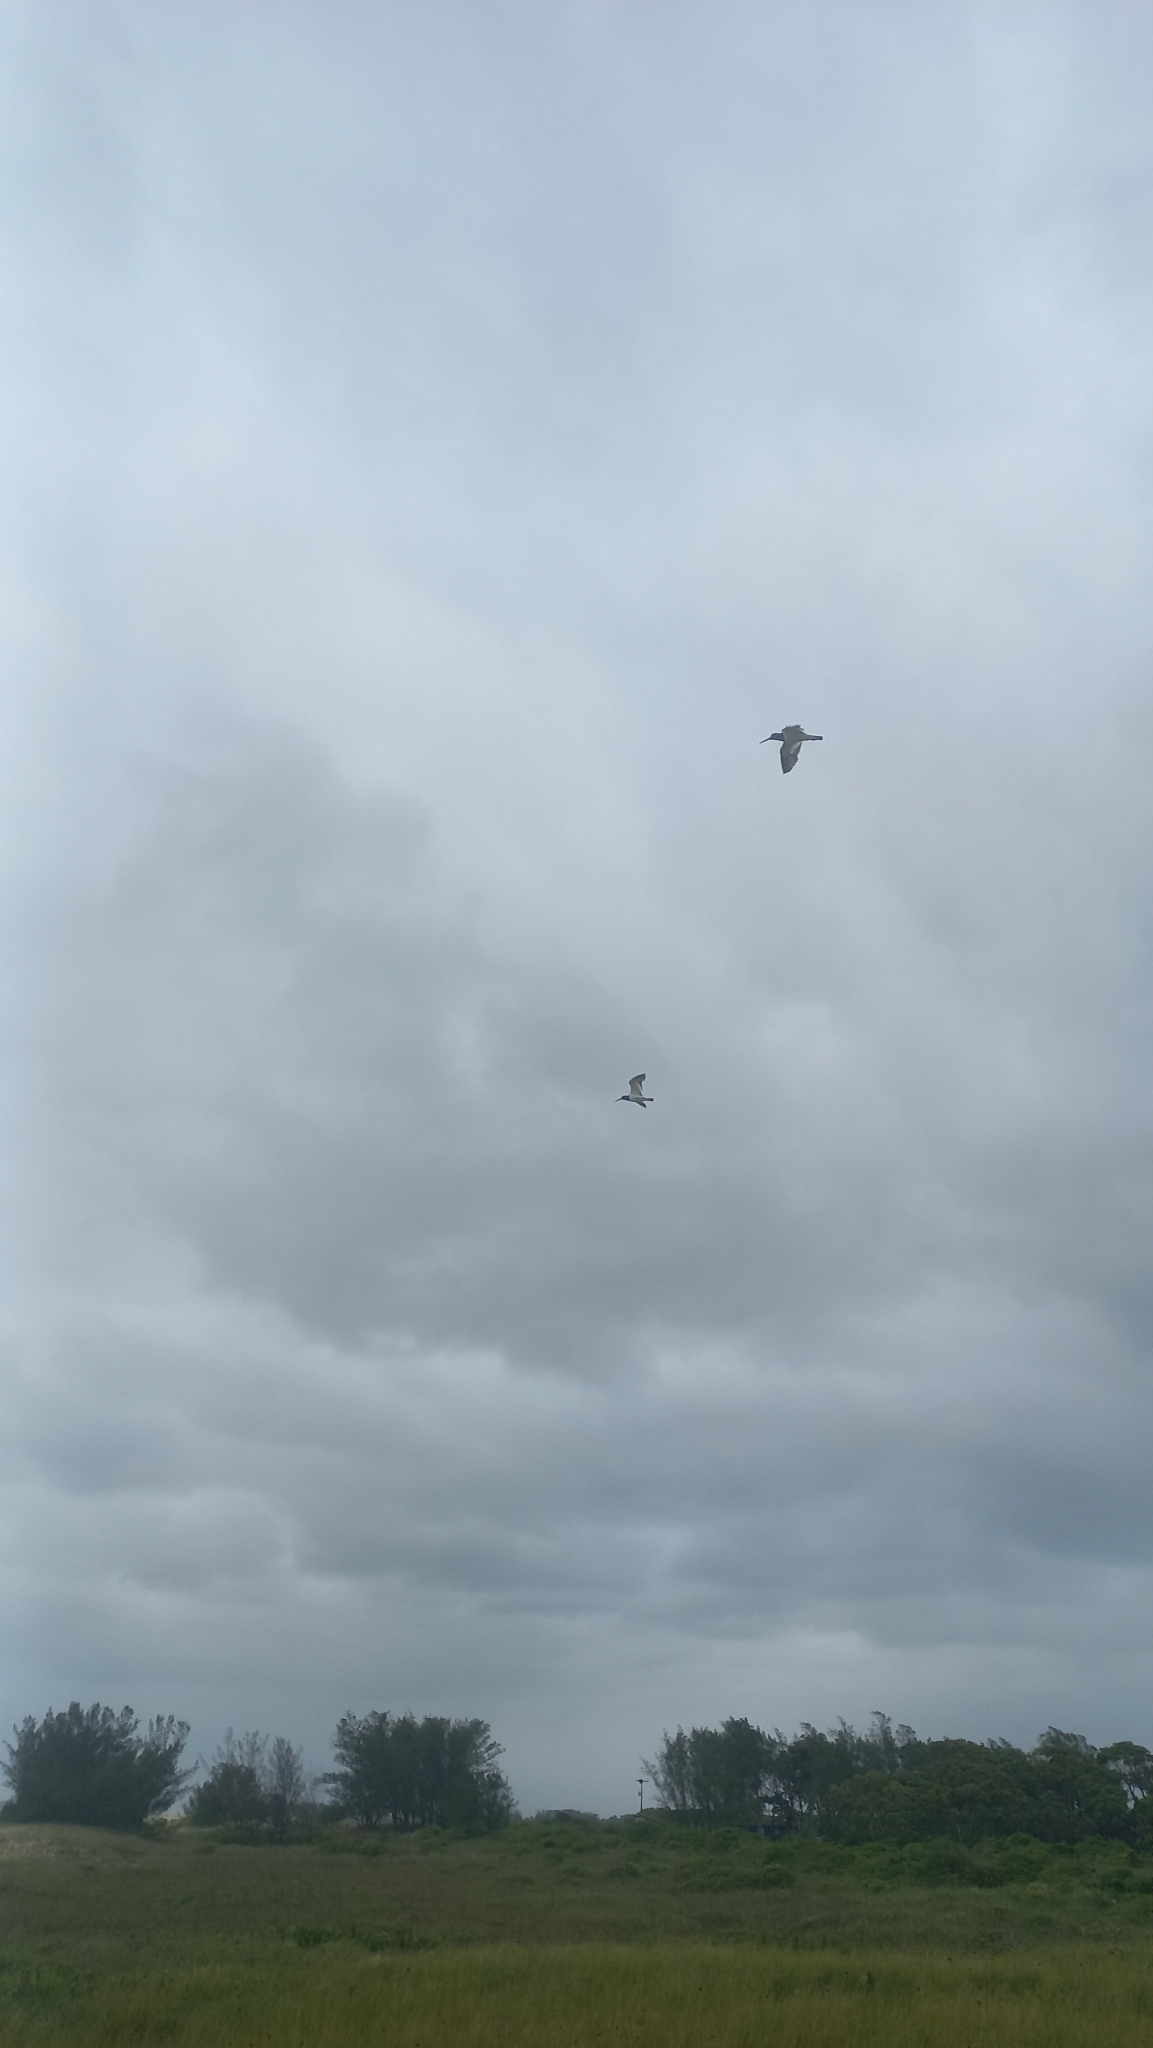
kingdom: Animalia
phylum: Chordata
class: Aves
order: Charadriiformes
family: Haematopodidae
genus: Haematopus
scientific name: Haematopus palliatus
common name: American oystercatcher
